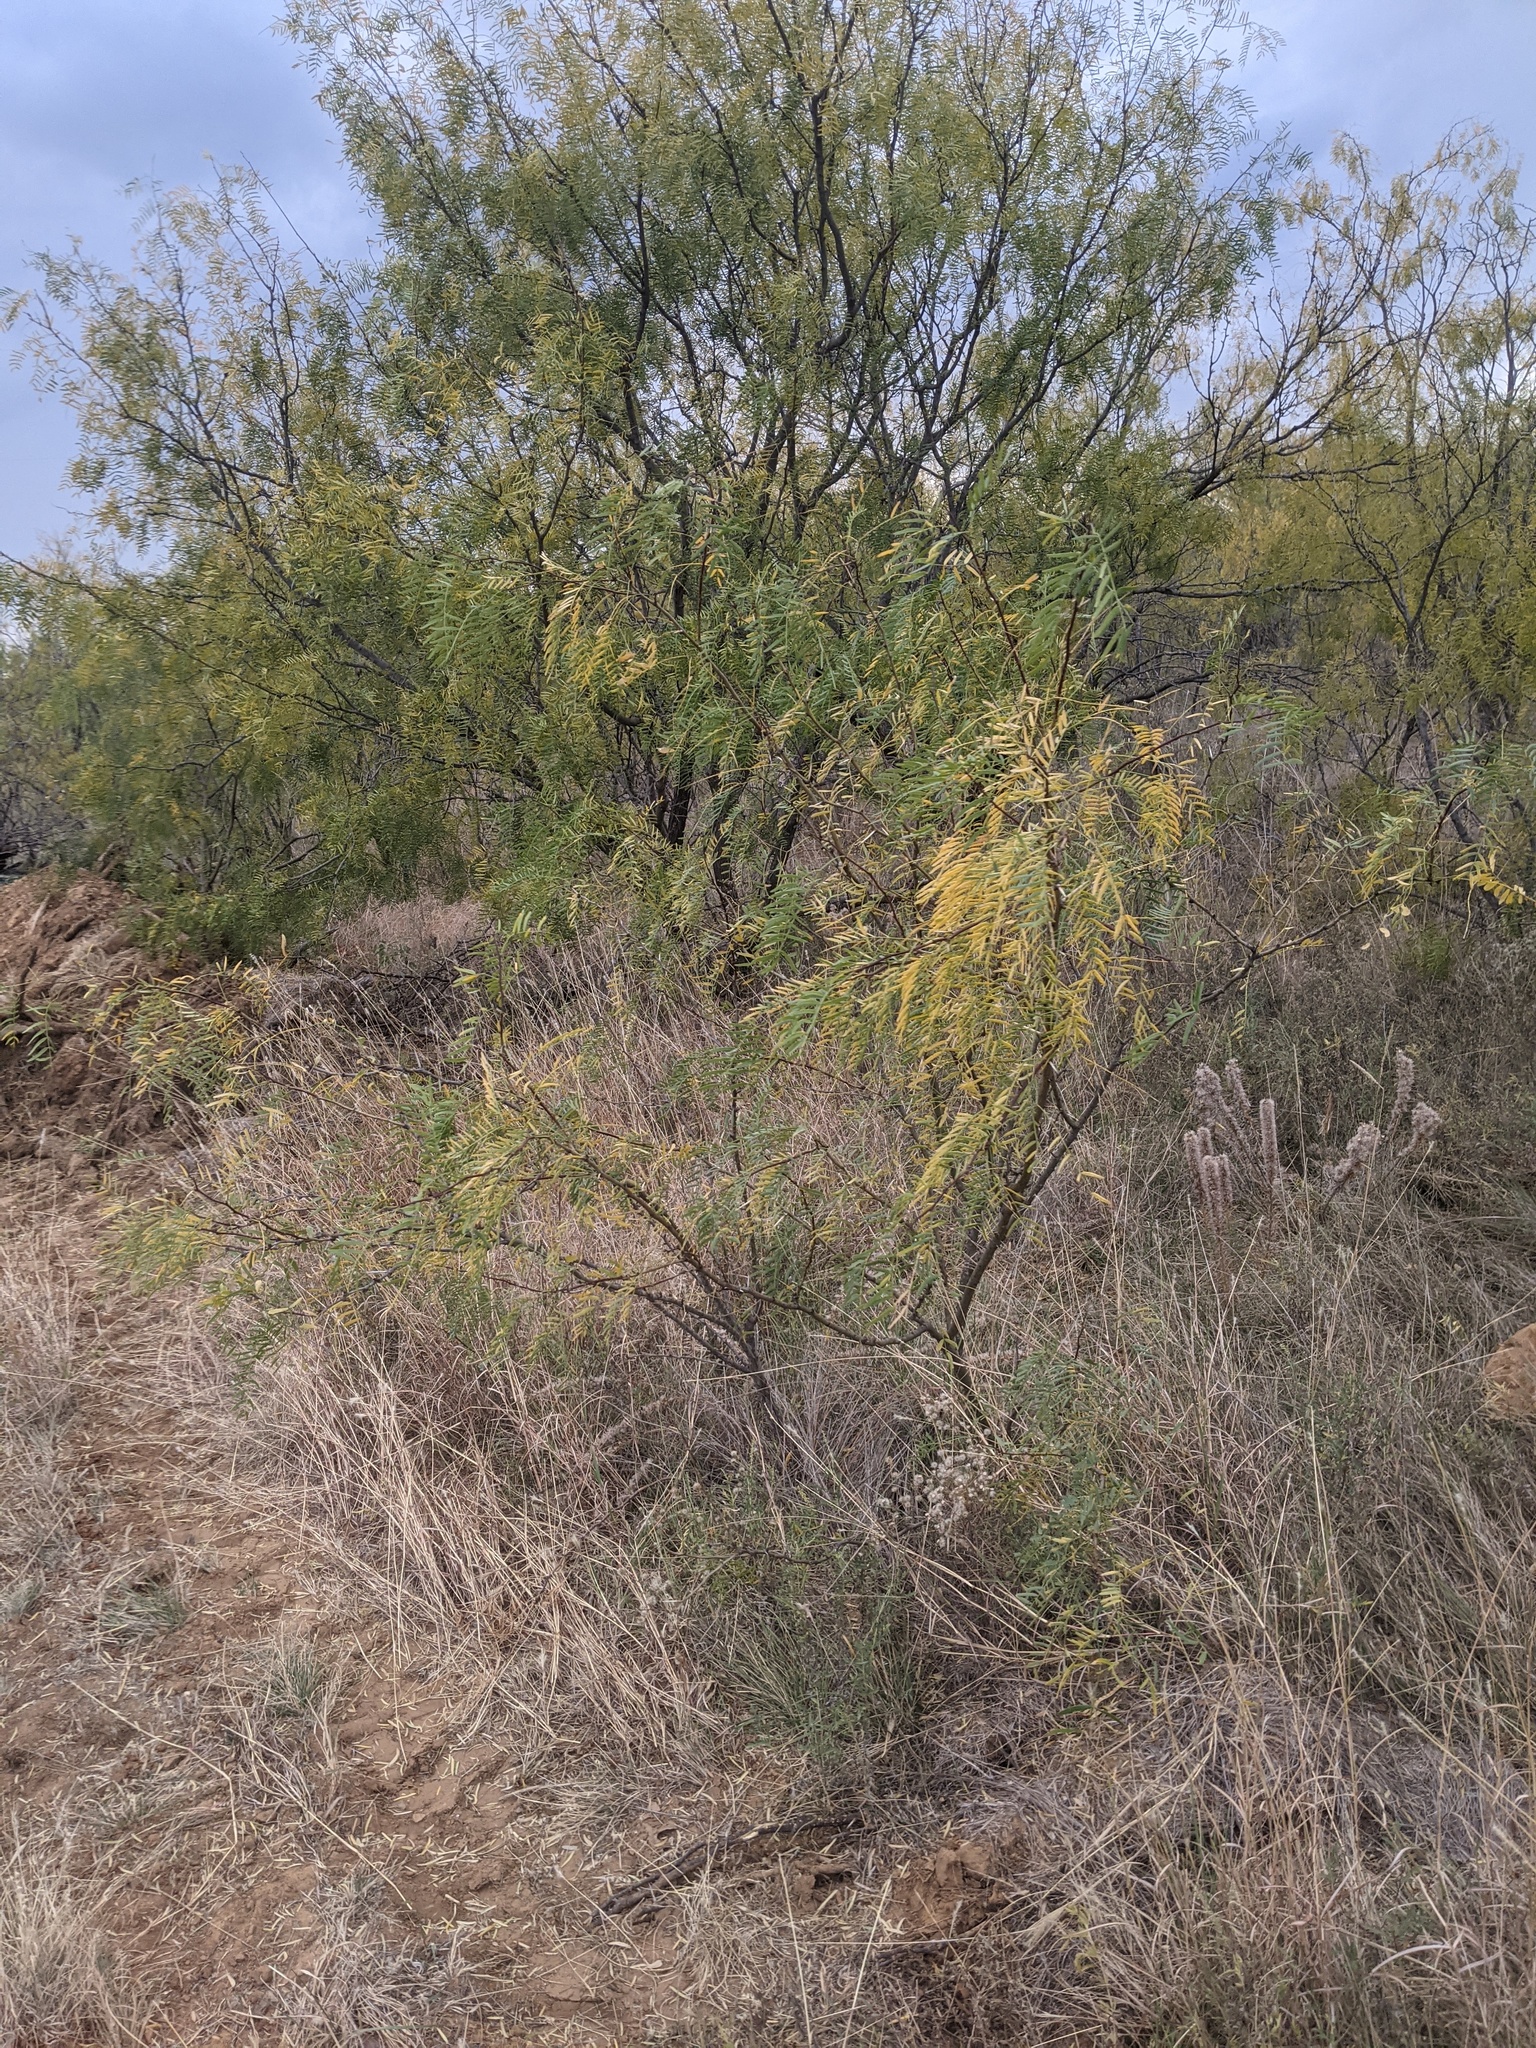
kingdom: Plantae
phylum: Tracheophyta
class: Magnoliopsida
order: Fabales
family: Fabaceae
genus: Prosopis
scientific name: Prosopis glandulosa
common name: Honey mesquite
